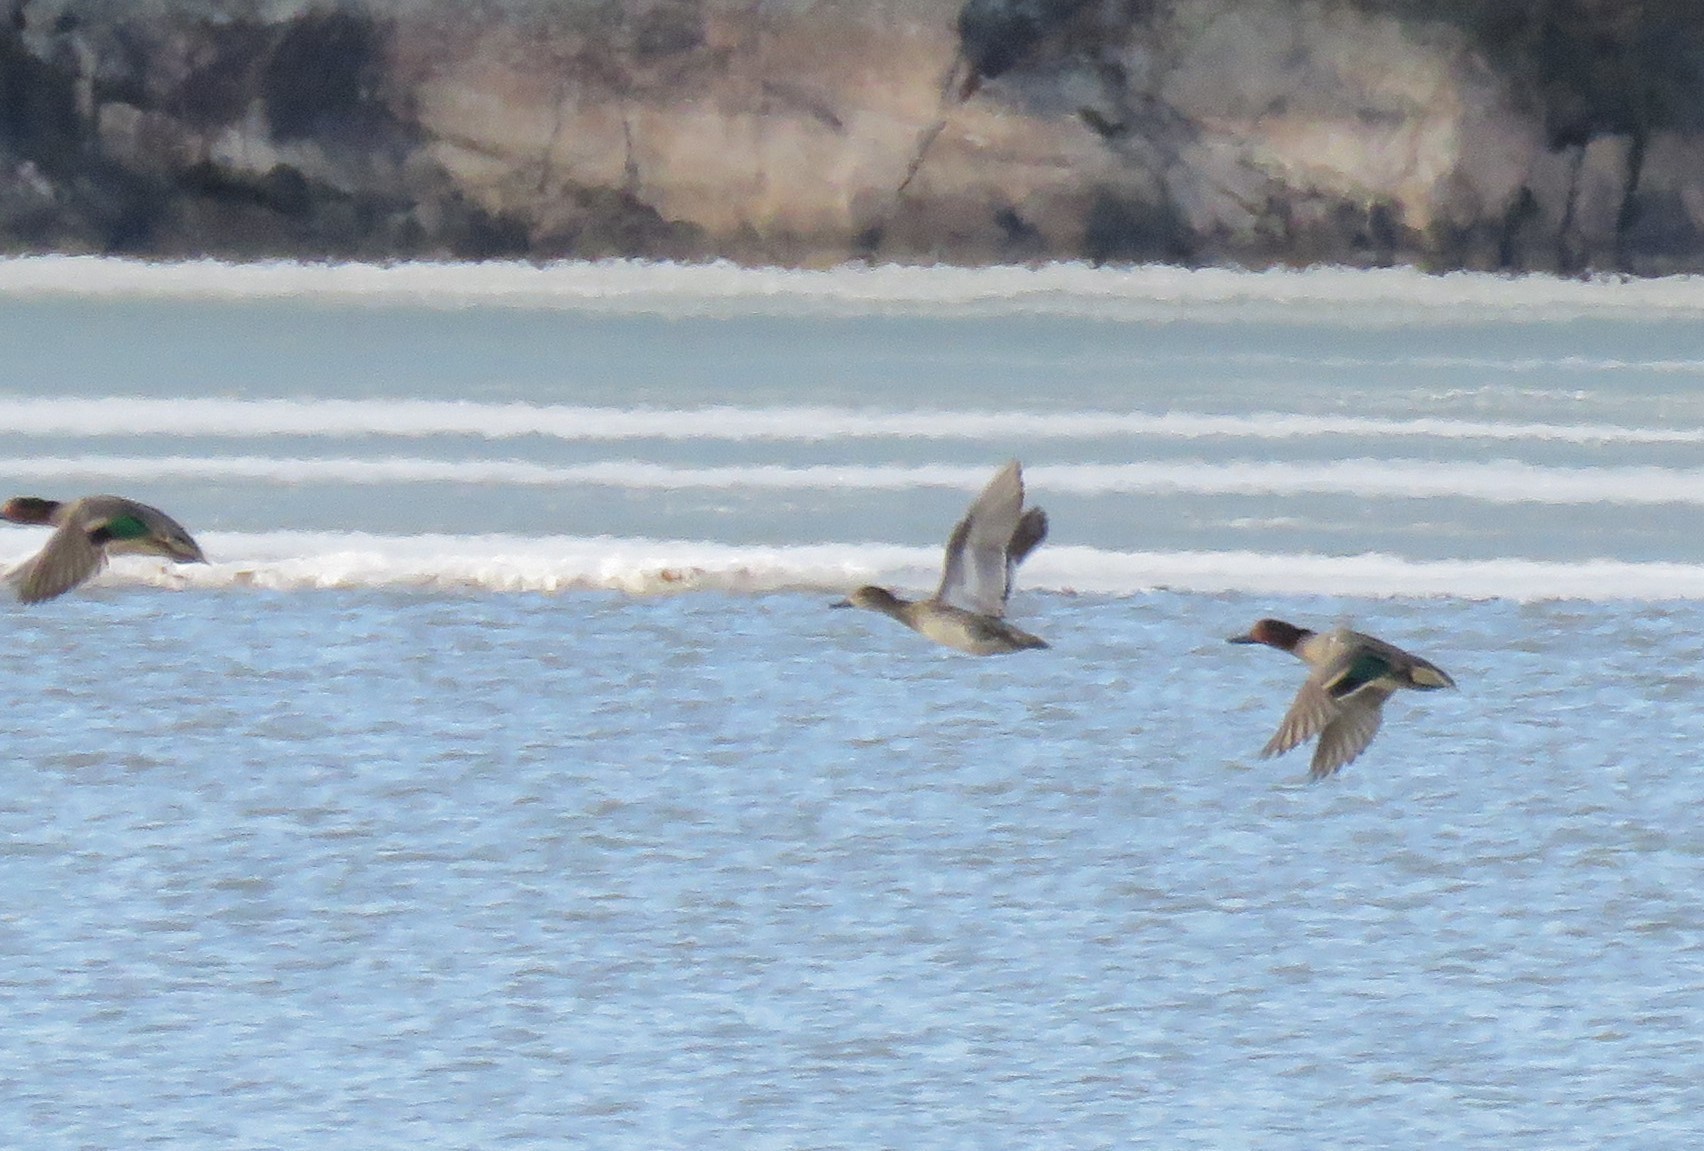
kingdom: Animalia
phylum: Chordata
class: Aves
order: Anseriformes
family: Anatidae
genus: Anas
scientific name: Anas crecca
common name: Eurasian teal
